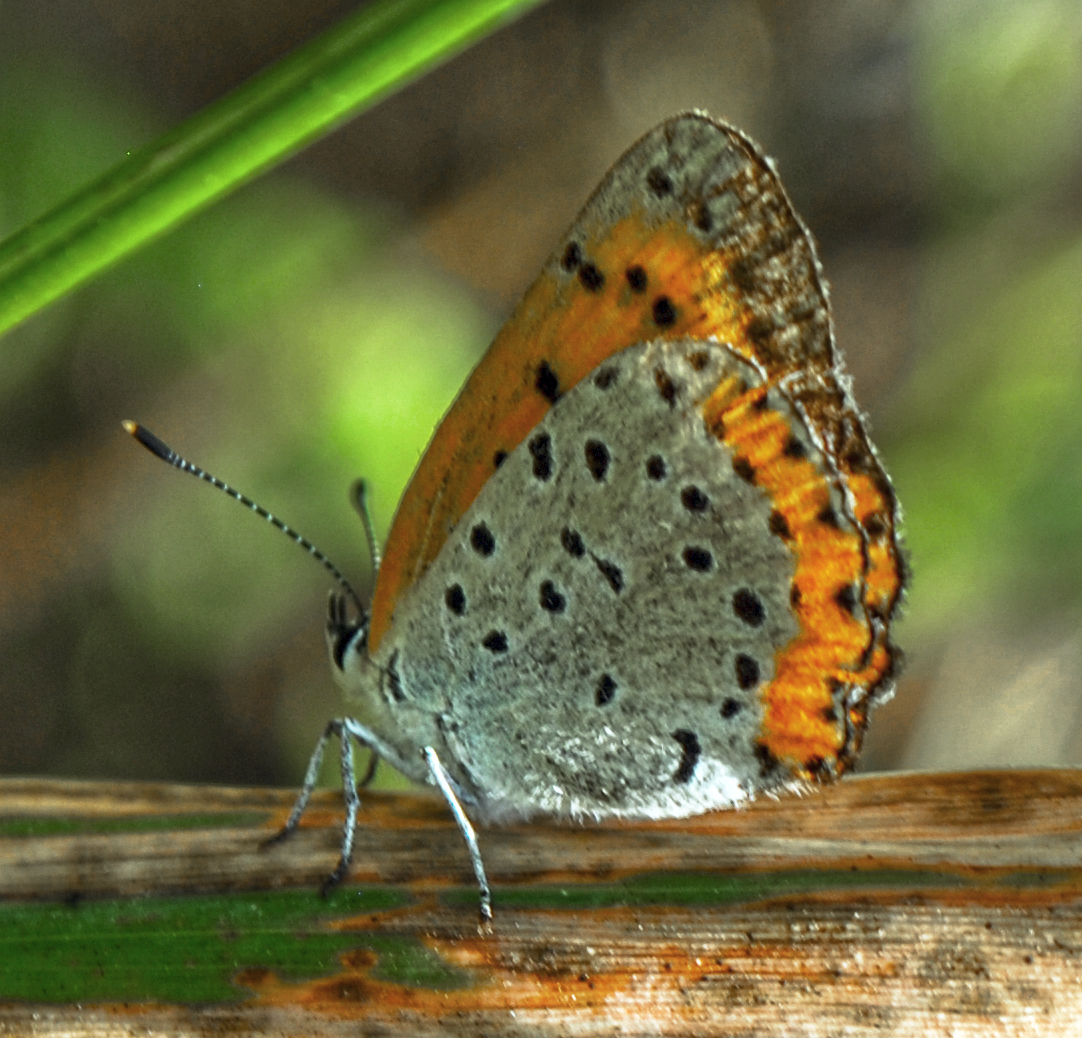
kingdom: Animalia
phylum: Arthropoda
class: Insecta
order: Lepidoptera
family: Lycaenidae
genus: Tharsalea
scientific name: Tharsalea hyllus
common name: Bronze copper
